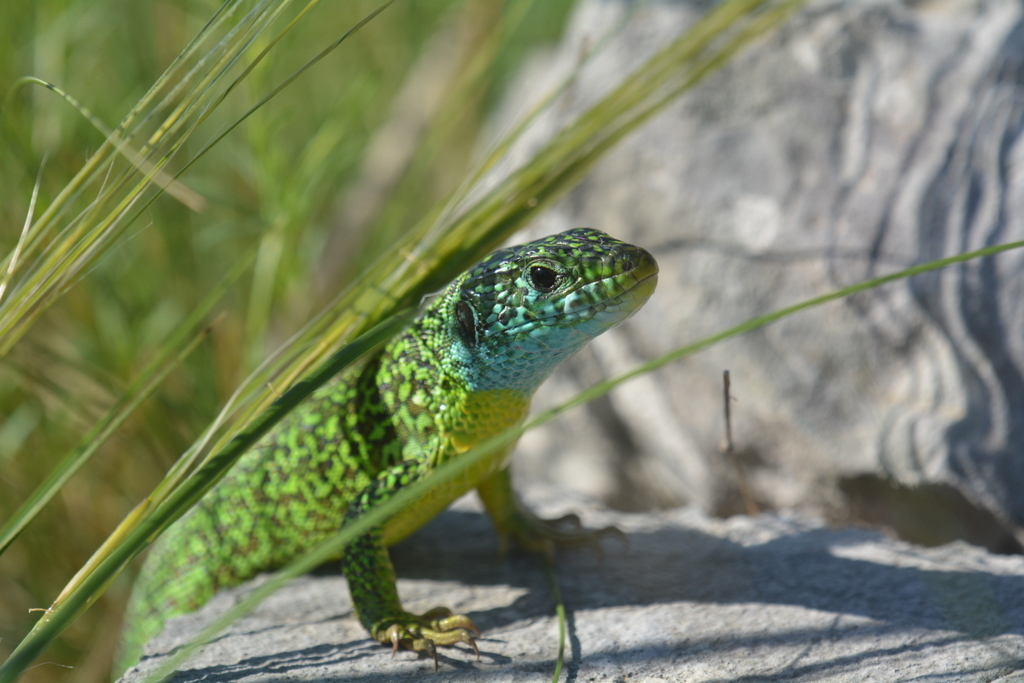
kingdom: Animalia
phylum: Chordata
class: Squamata
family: Lacertidae
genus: Lacerta
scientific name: Lacerta viridis
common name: European green lizard
